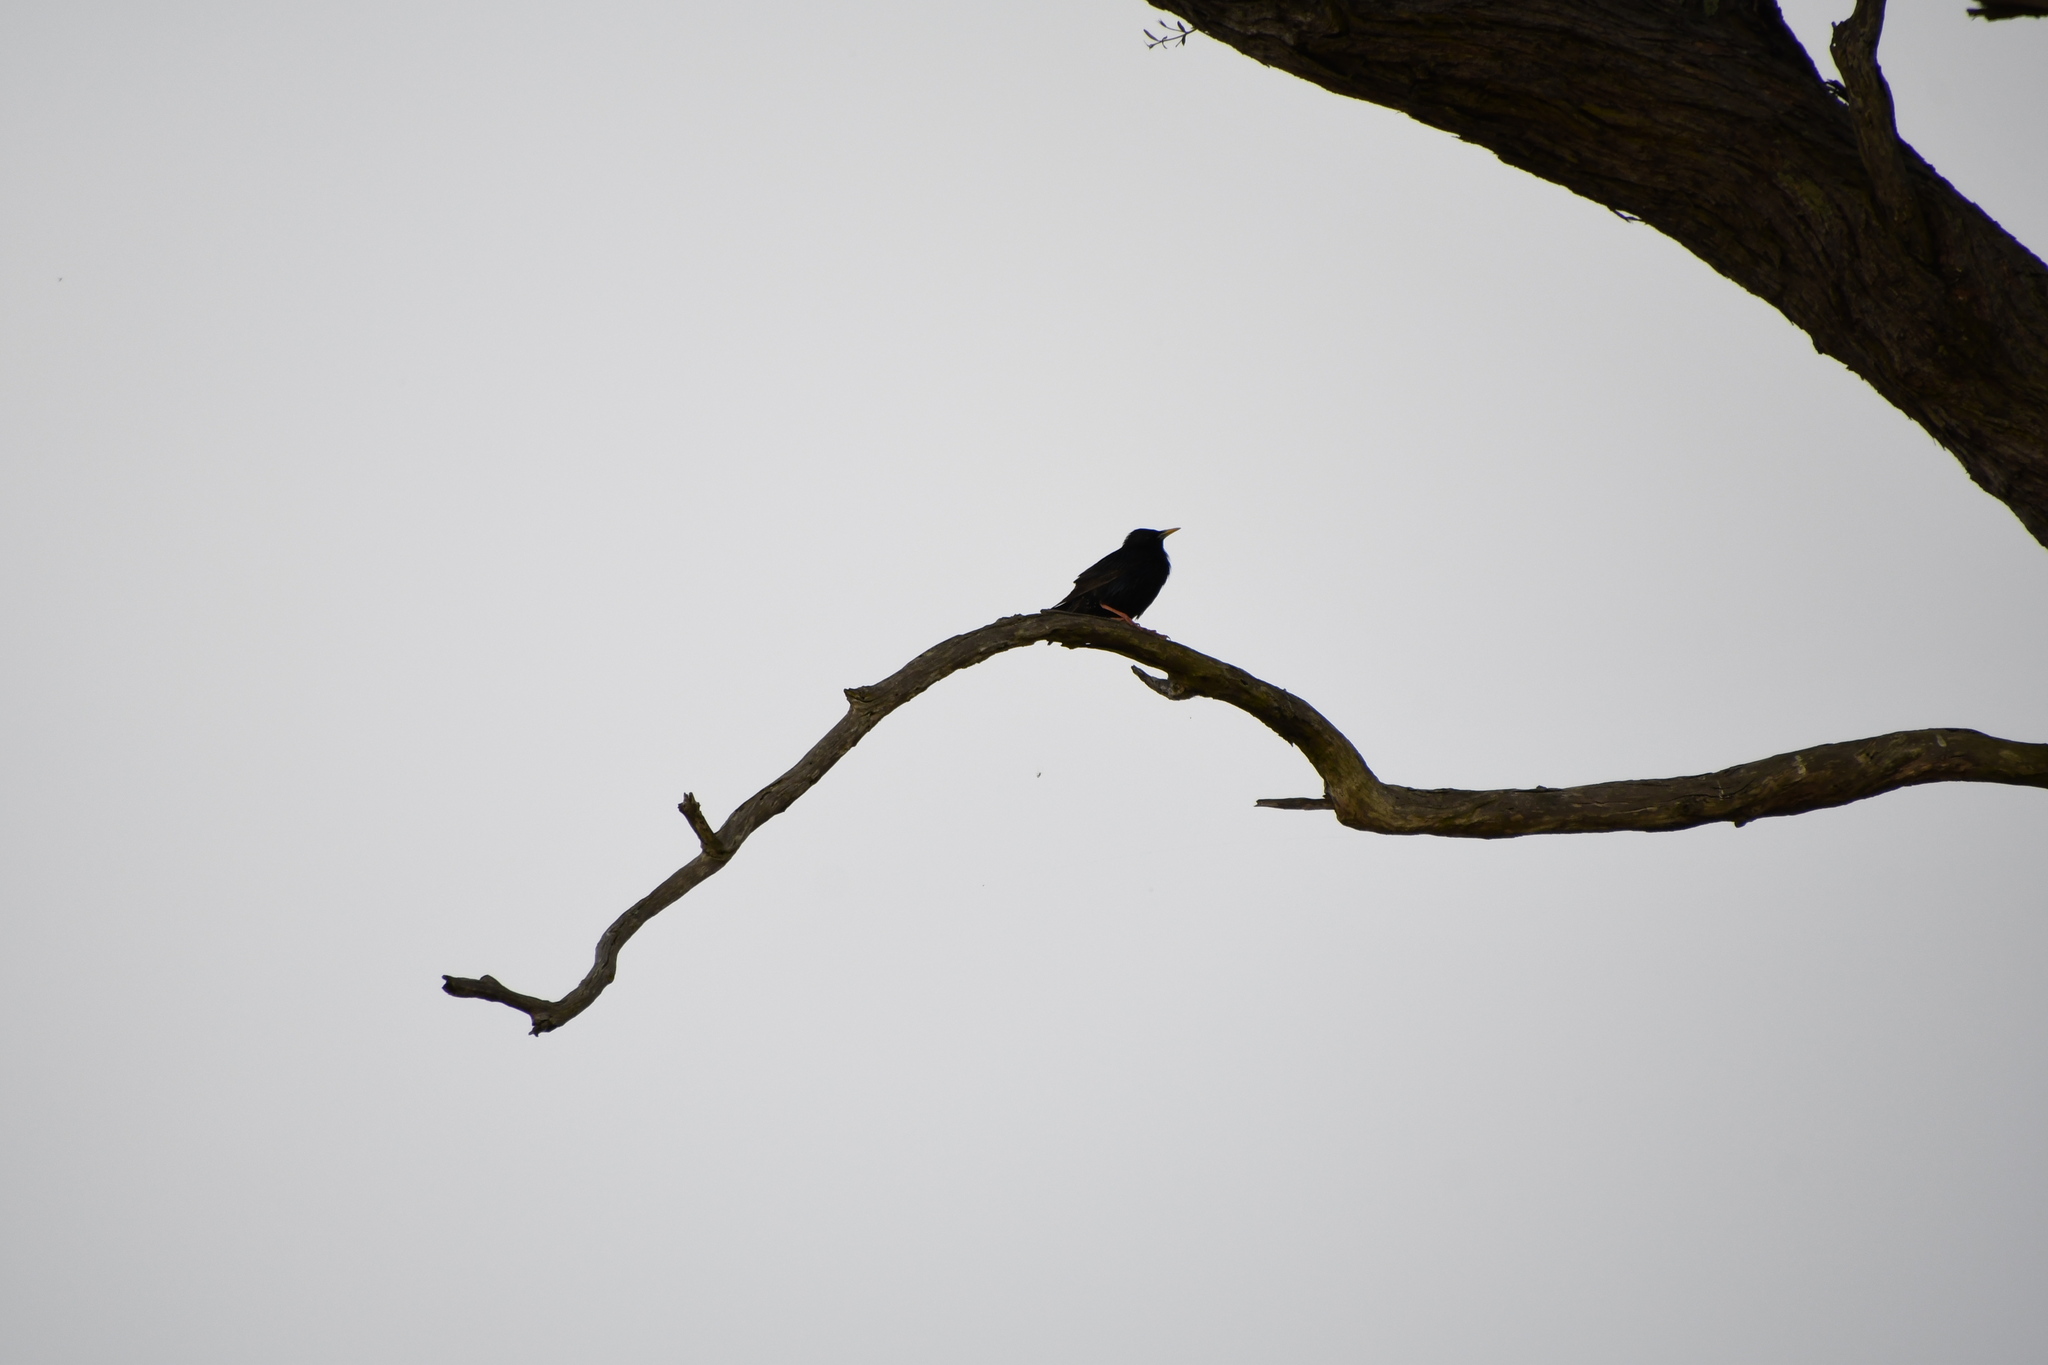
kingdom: Animalia
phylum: Chordata
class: Aves
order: Passeriformes
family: Sturnidae
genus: Sturnus
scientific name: Sturnus vulgaris
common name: Common starling
